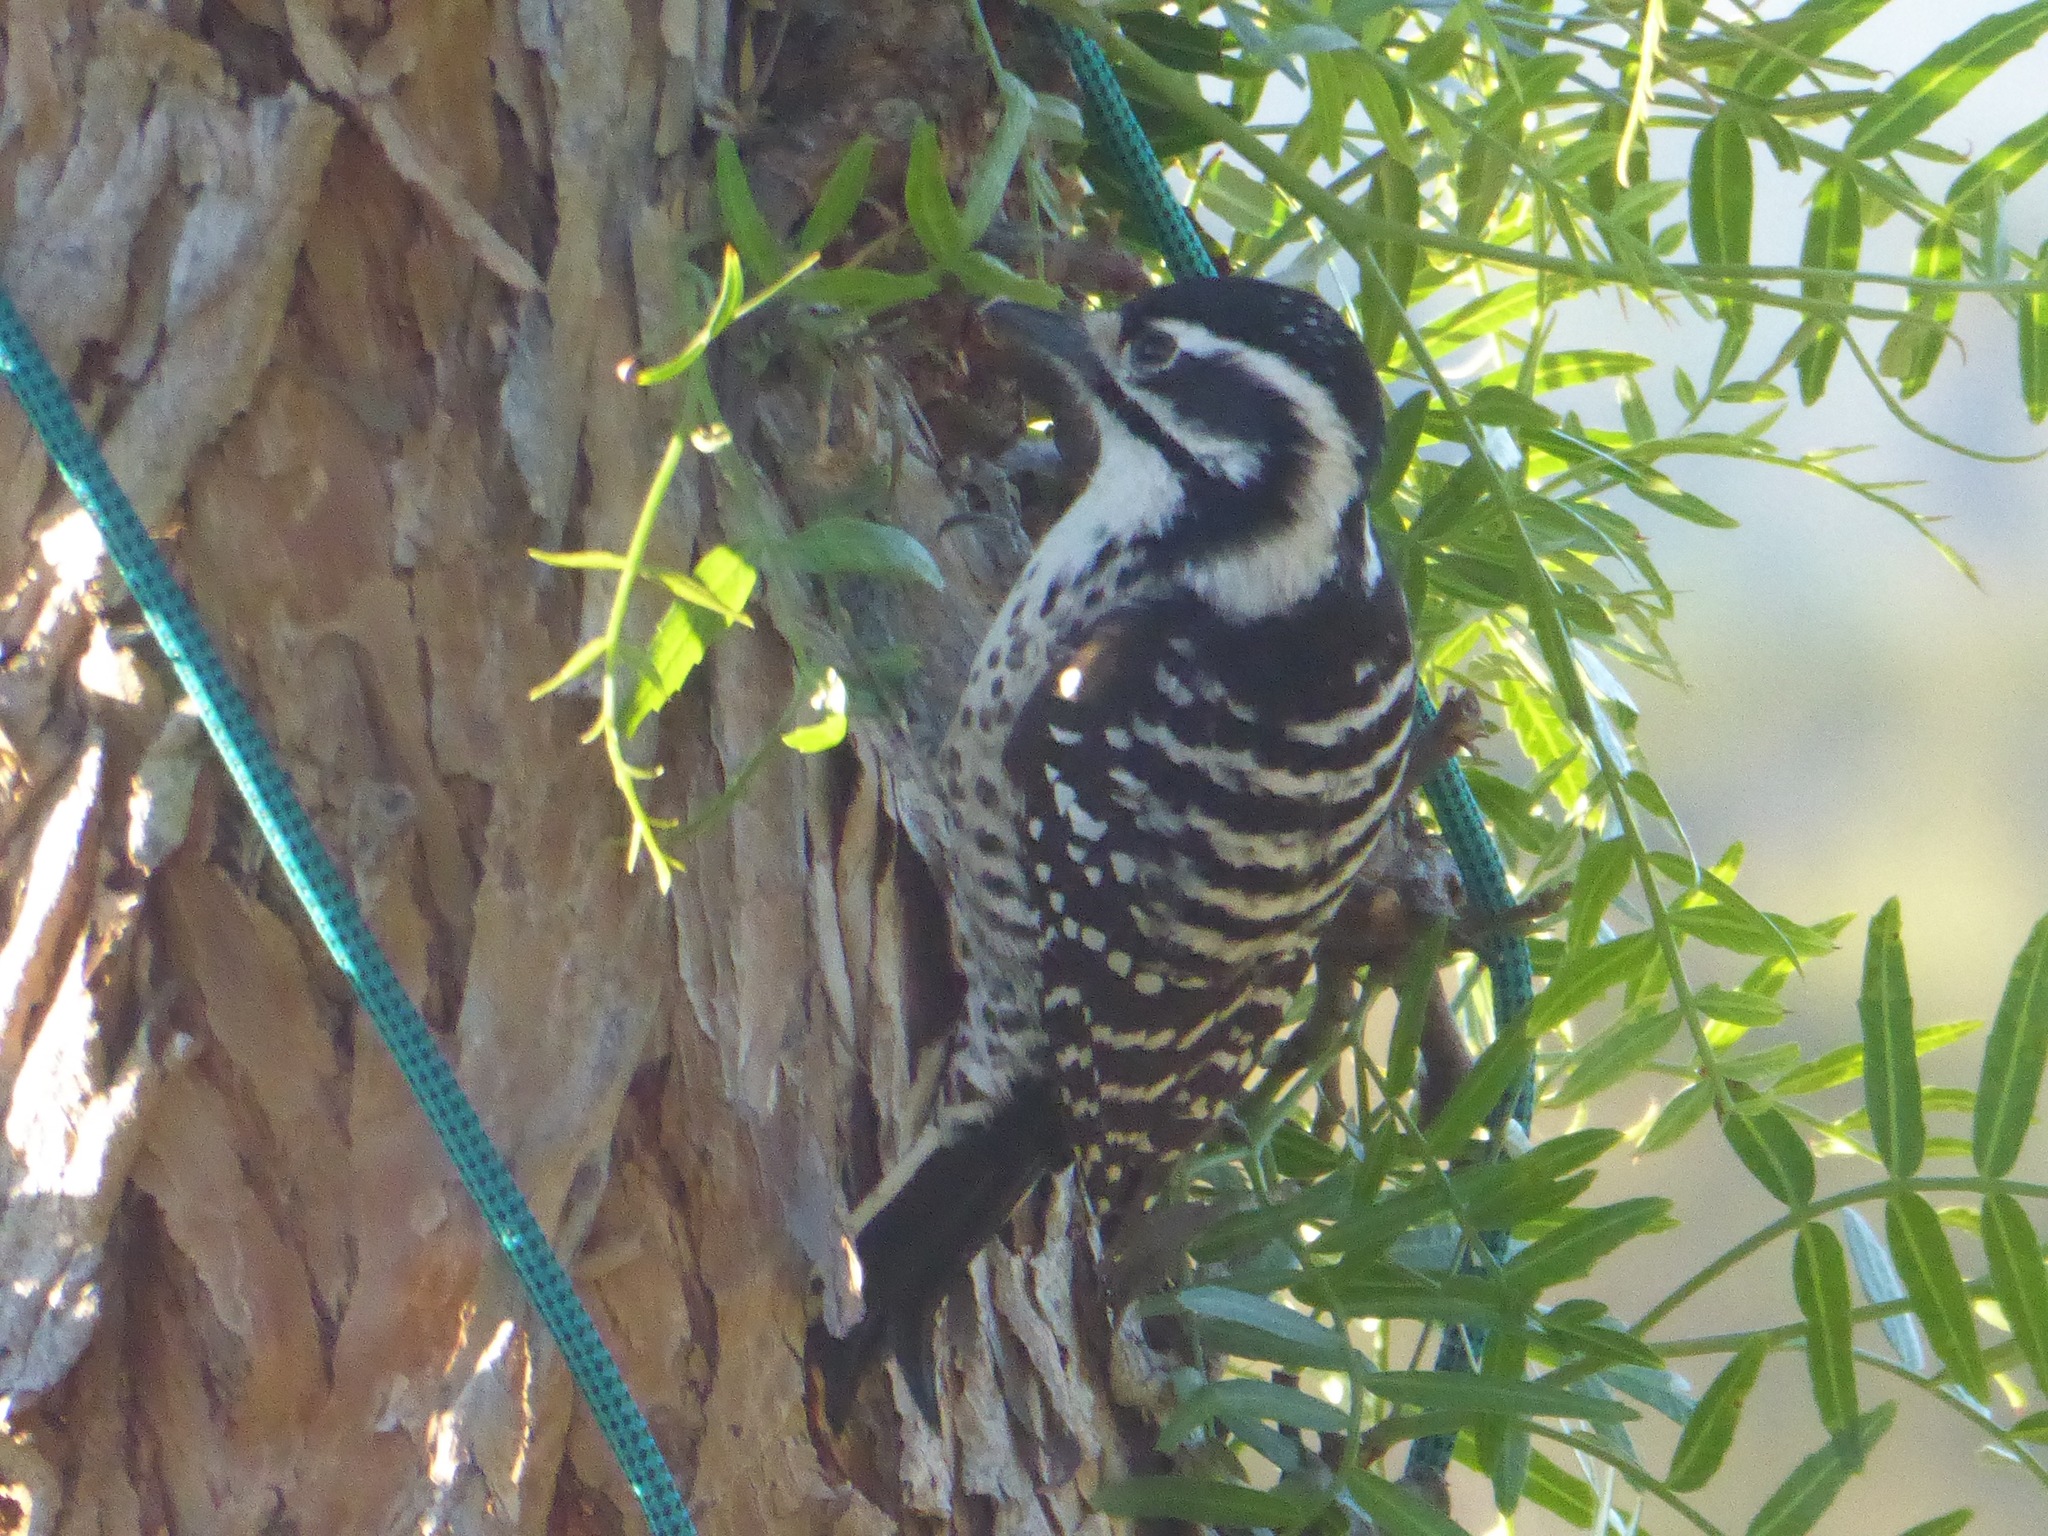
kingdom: Animalia
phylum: Chordata
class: Aves
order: Piciformes
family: Picidae
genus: Dryobates
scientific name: Dryobates nuttallii
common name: Nuttall's woodpecker
